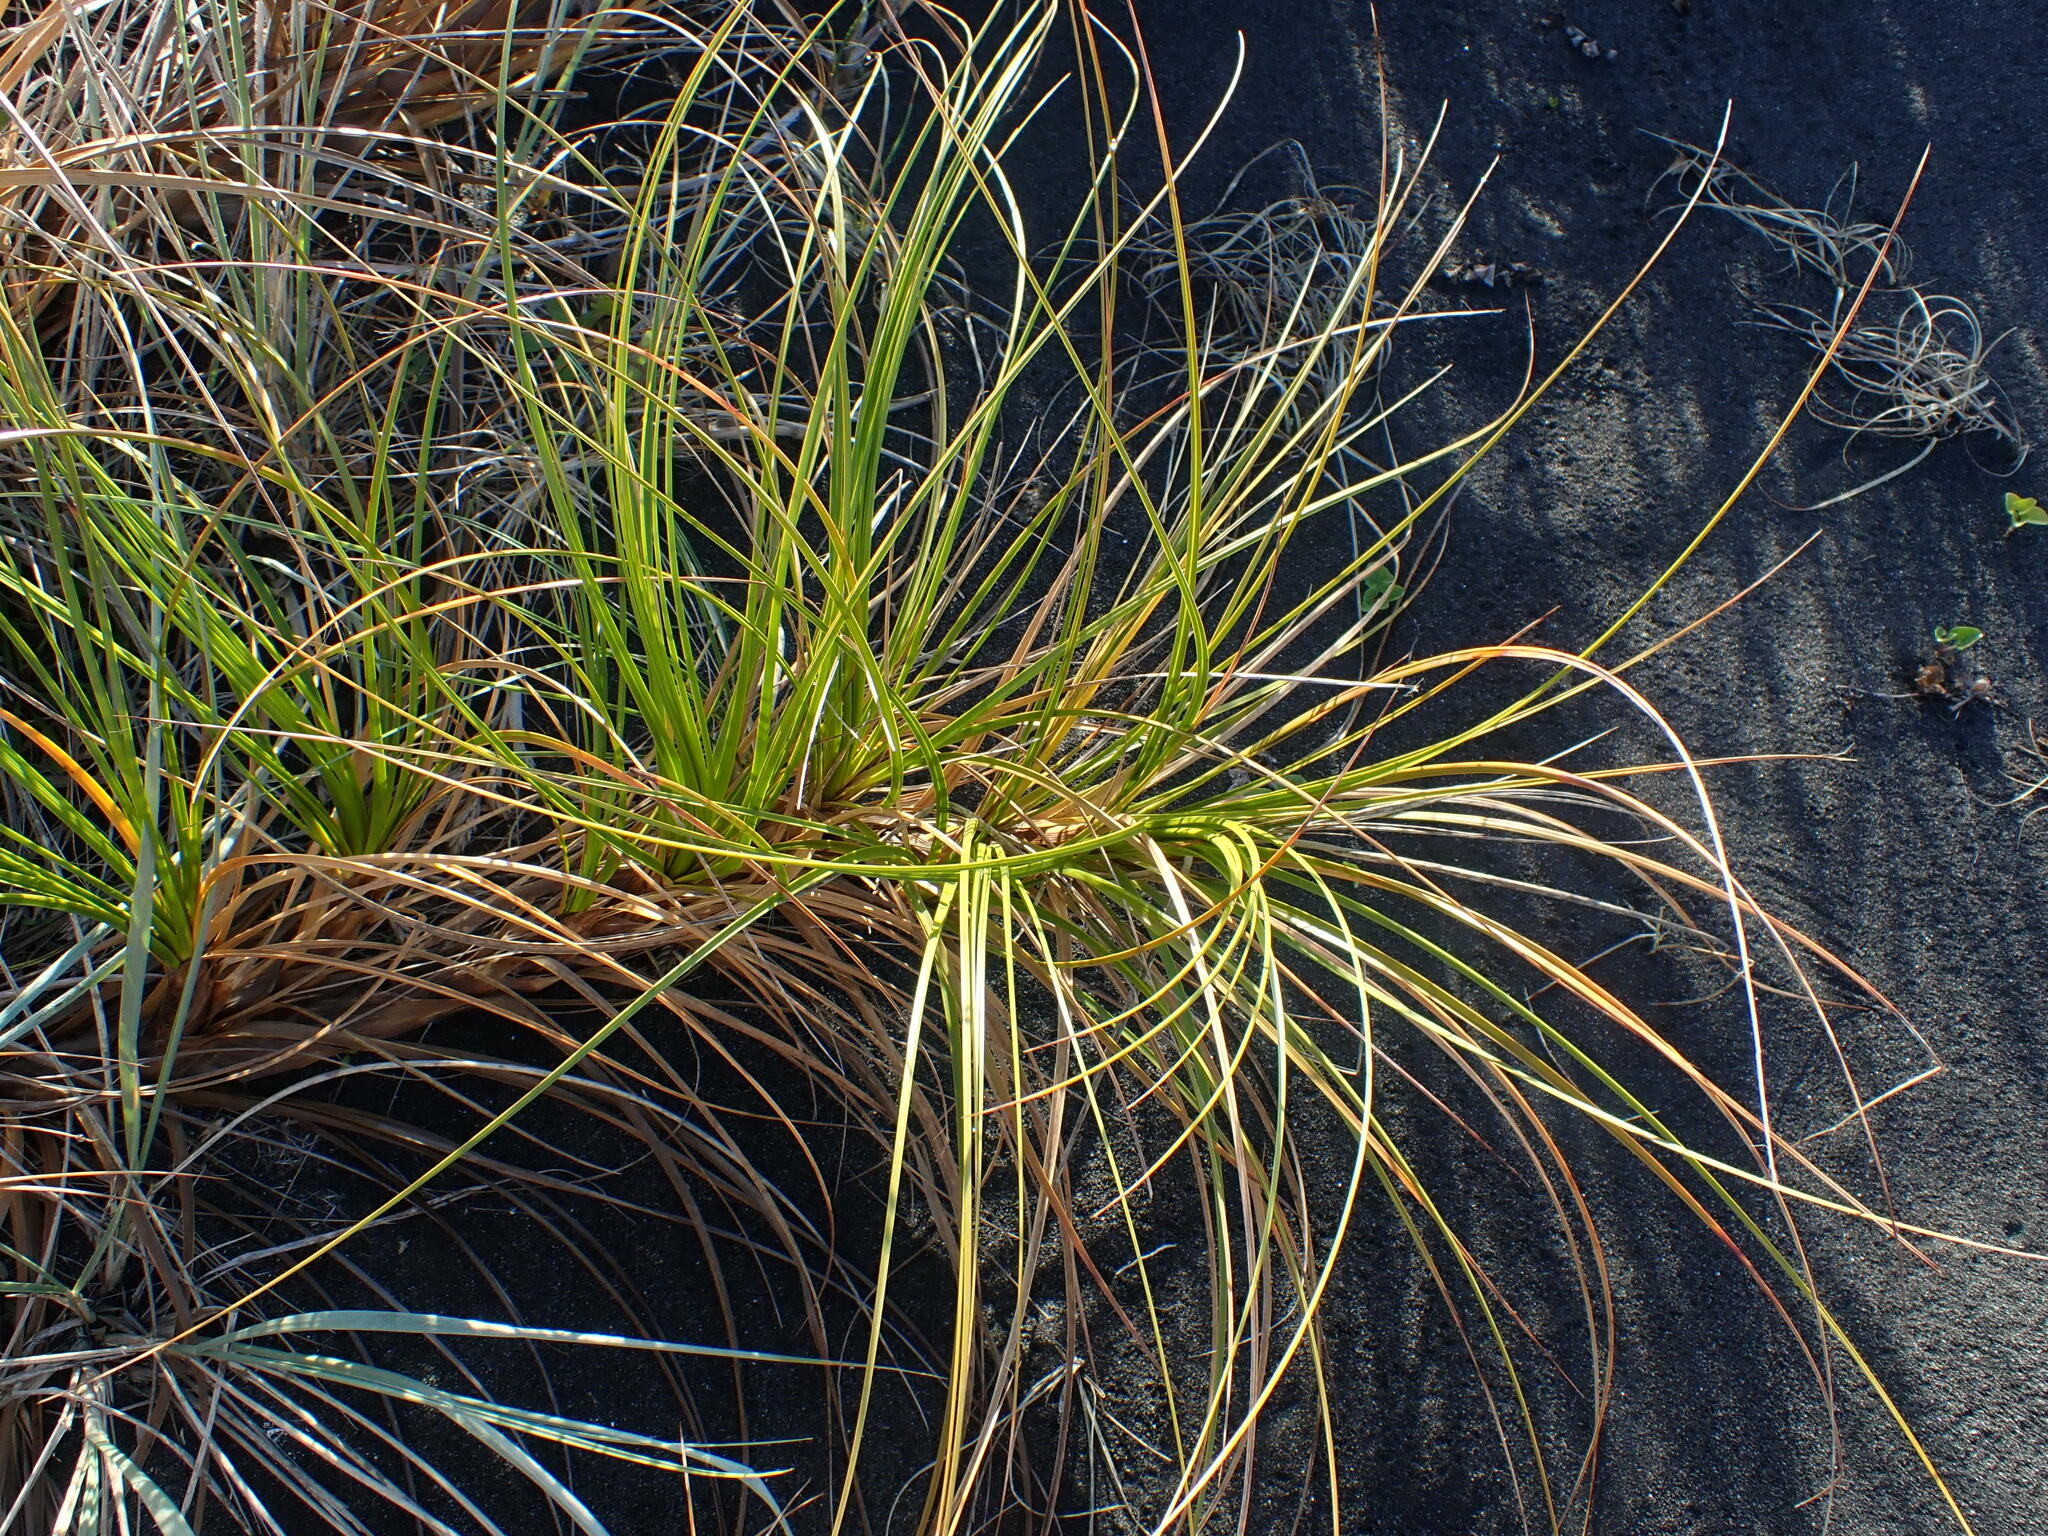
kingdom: Plantae
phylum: Tracheophyta
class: Liliopsida
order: Poales
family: Cyperaceae
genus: Ficinia
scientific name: Ficinia spiralis
